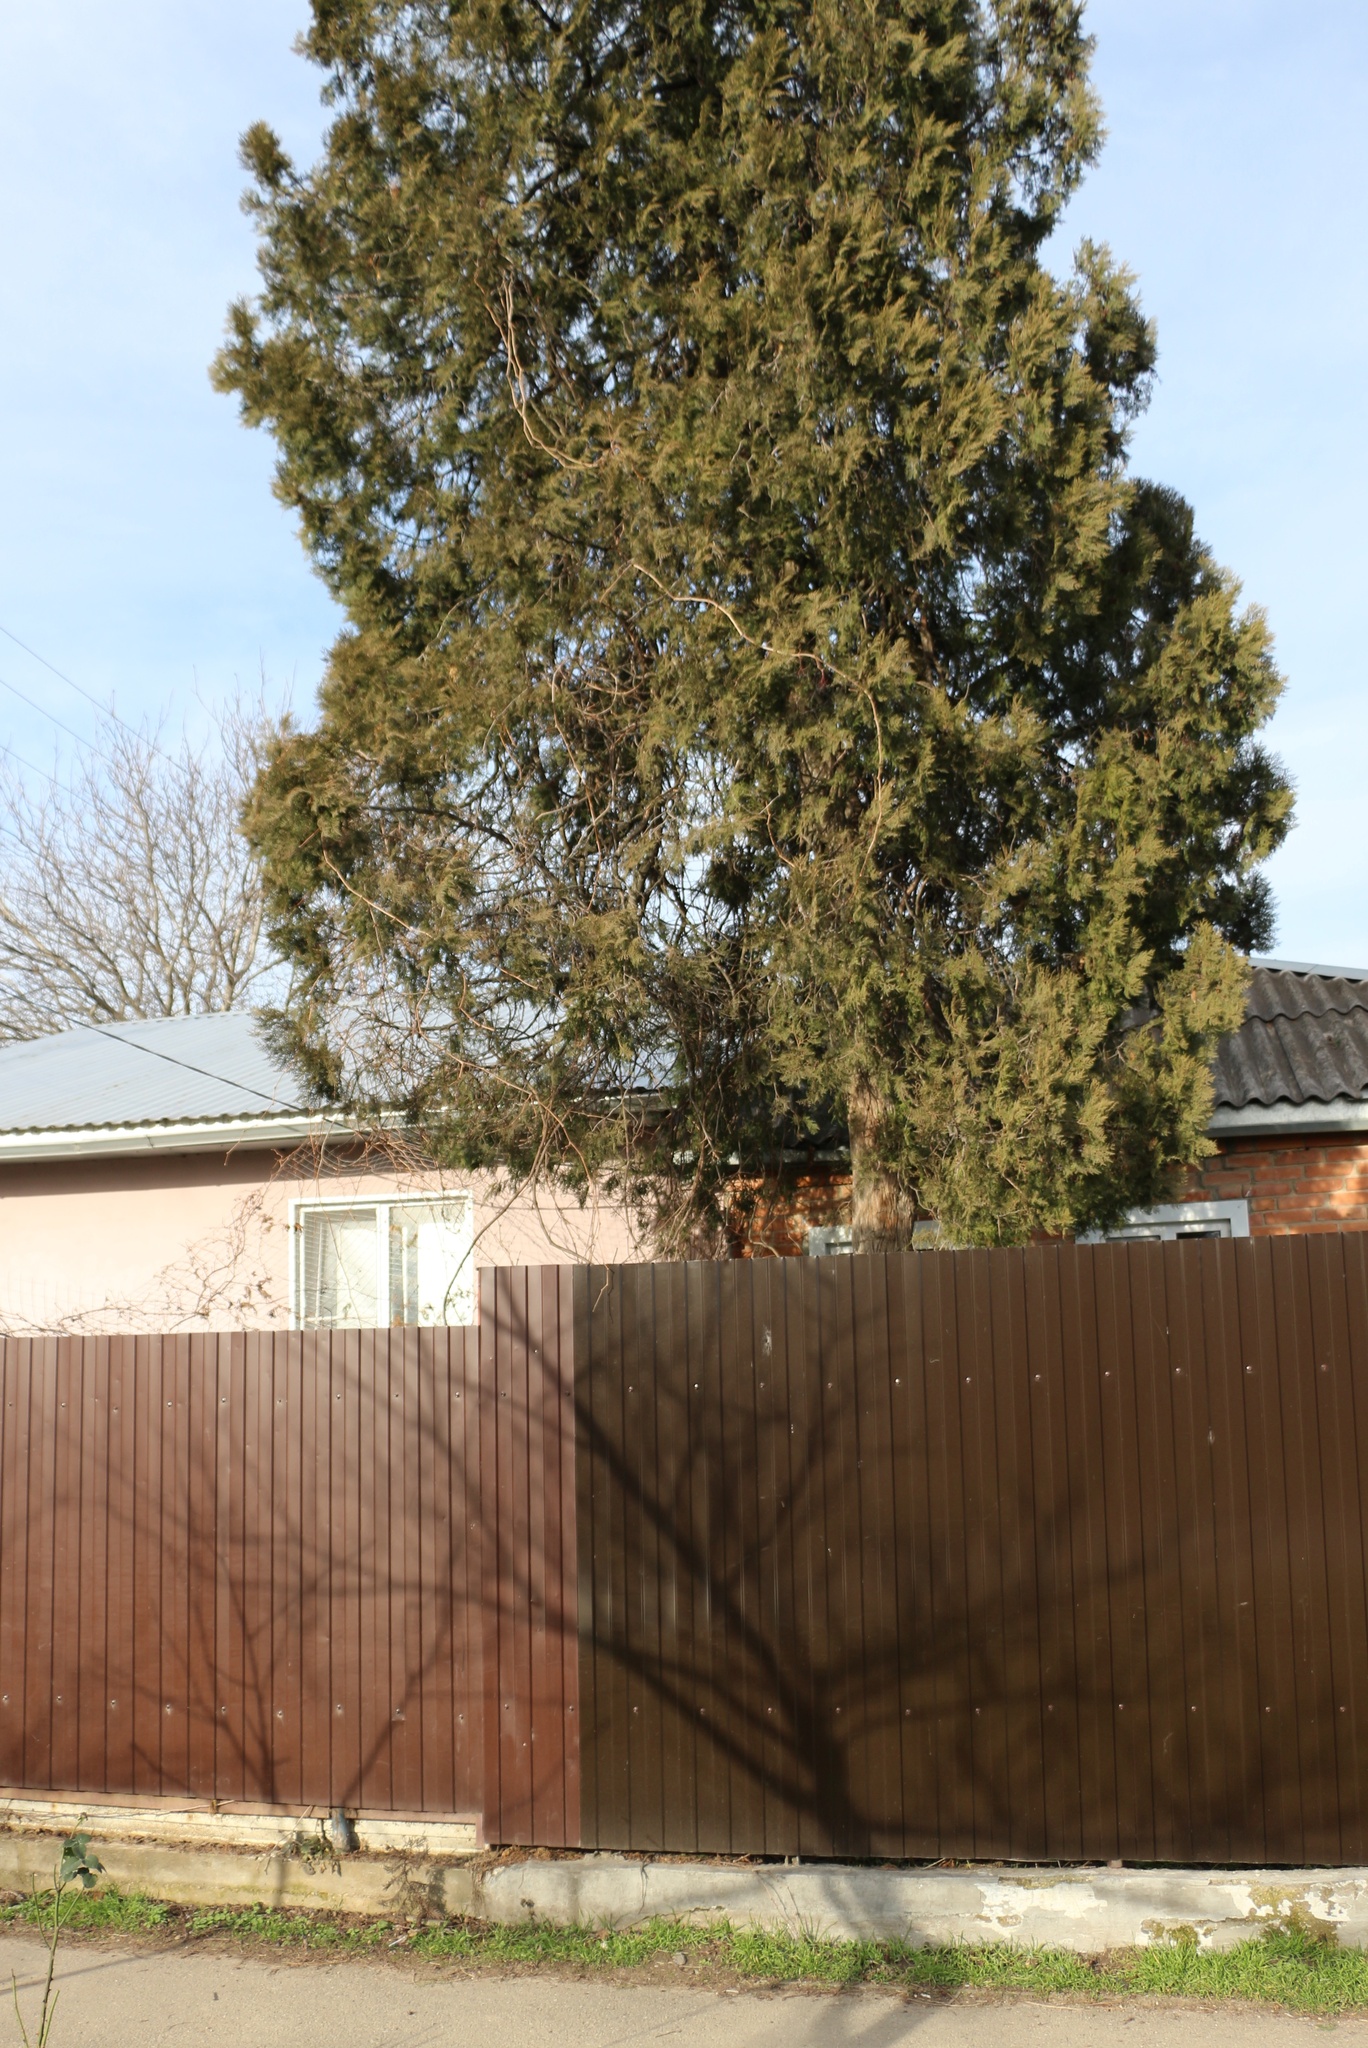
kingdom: Plantae
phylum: Tracheophyta
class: Pinopsida
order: Pinales
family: Cupressaceae
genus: Platycladus
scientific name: Platycladus orientalis
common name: Chinese thuja
